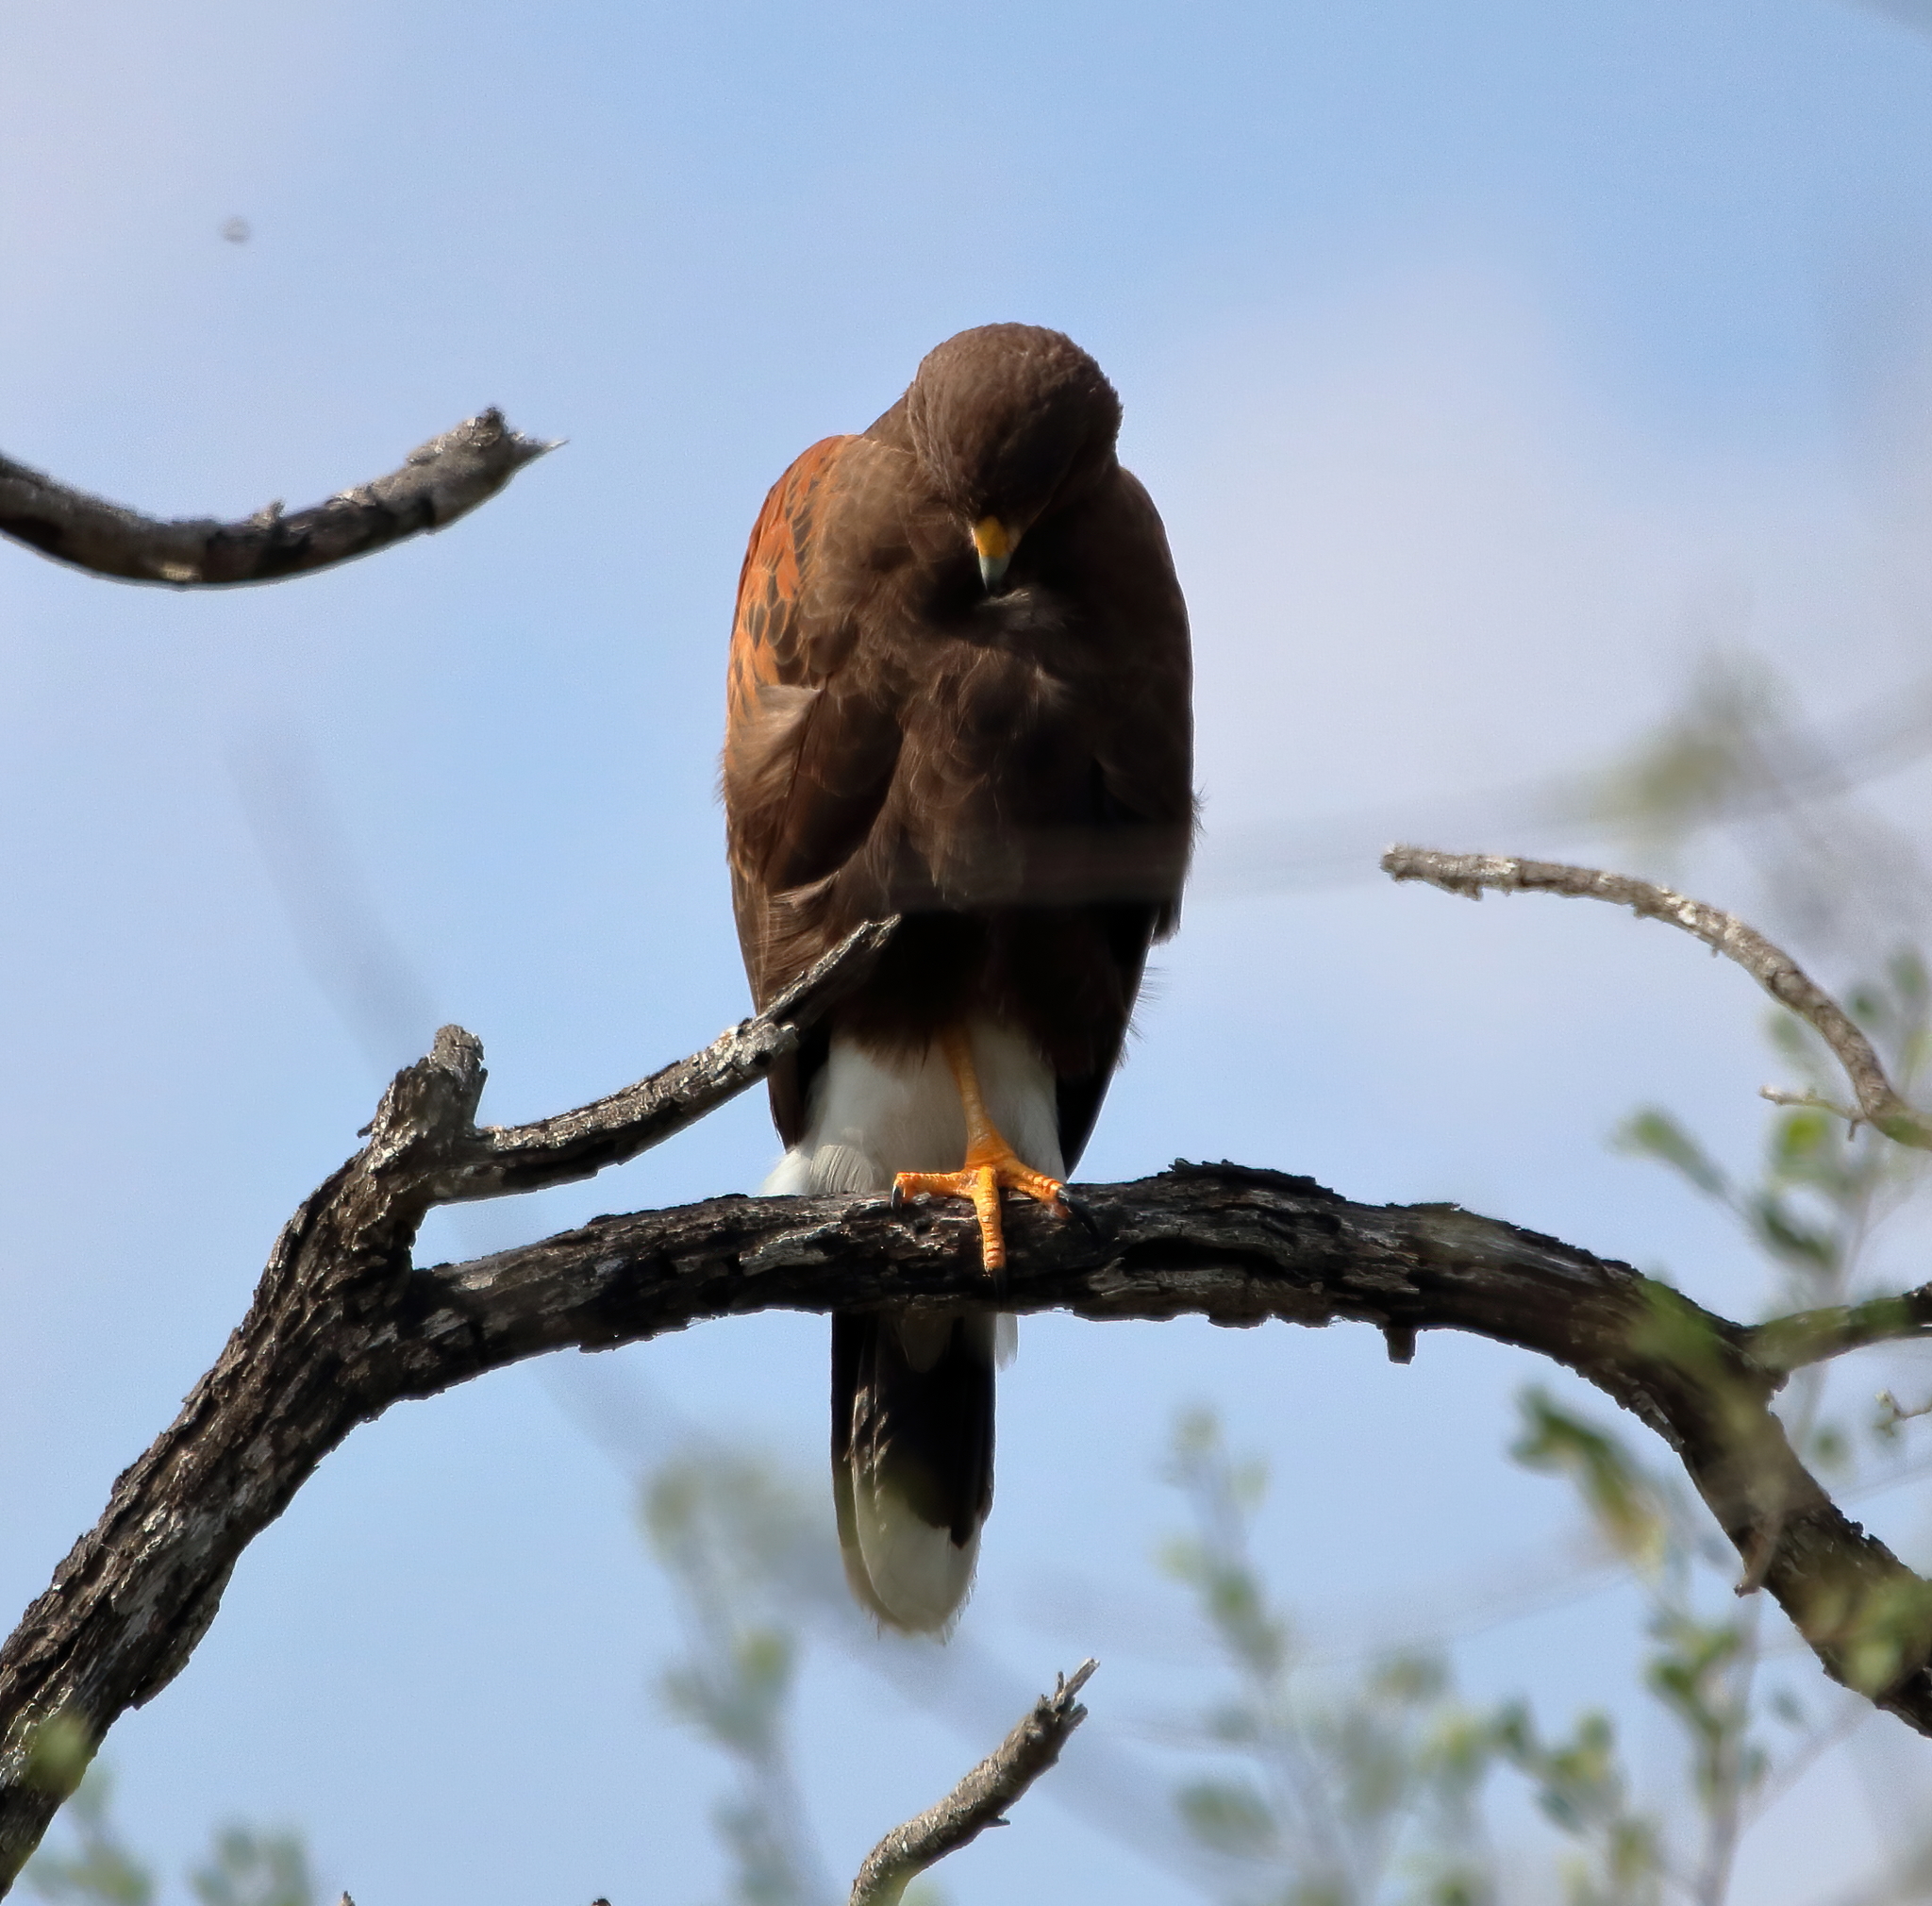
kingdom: Animalia
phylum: Chordata
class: Aves
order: Accipitriformes
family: Accipitridae
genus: Parabuteo
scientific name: Parabuteo unicinctus
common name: Harris's hawk
